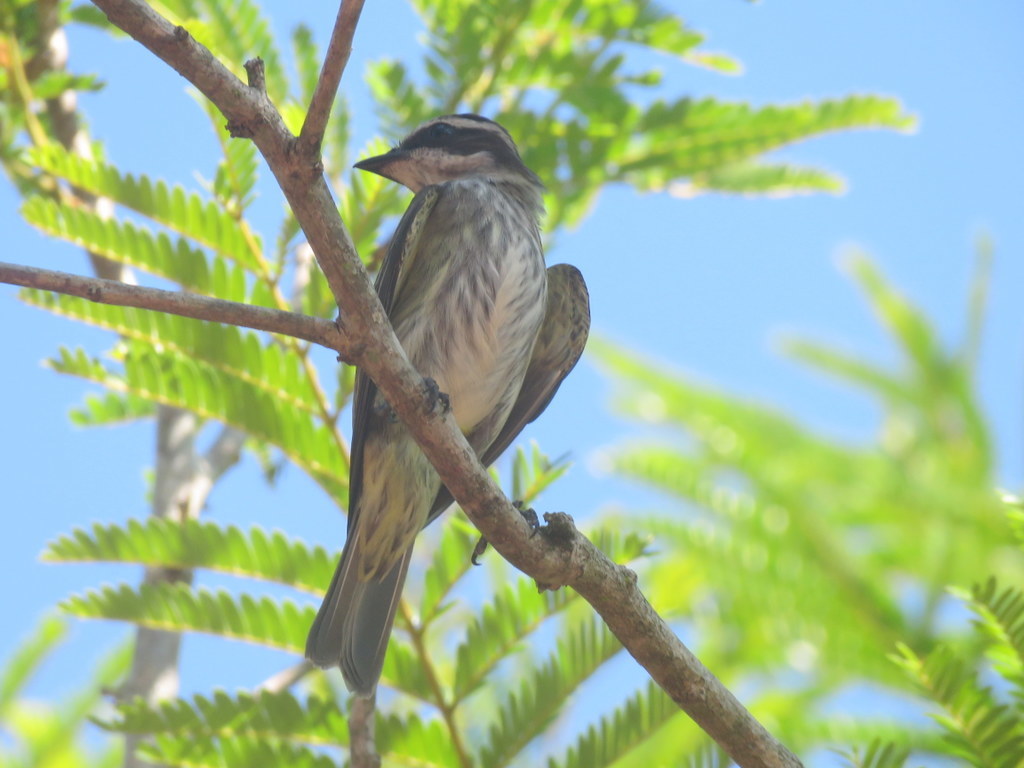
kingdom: Animalia
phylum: Chordata
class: Aves
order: Passeriformes
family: Tyrannidae
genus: Myiodynastes
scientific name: Myiodynastes maculatus
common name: Streaked flycatcher
